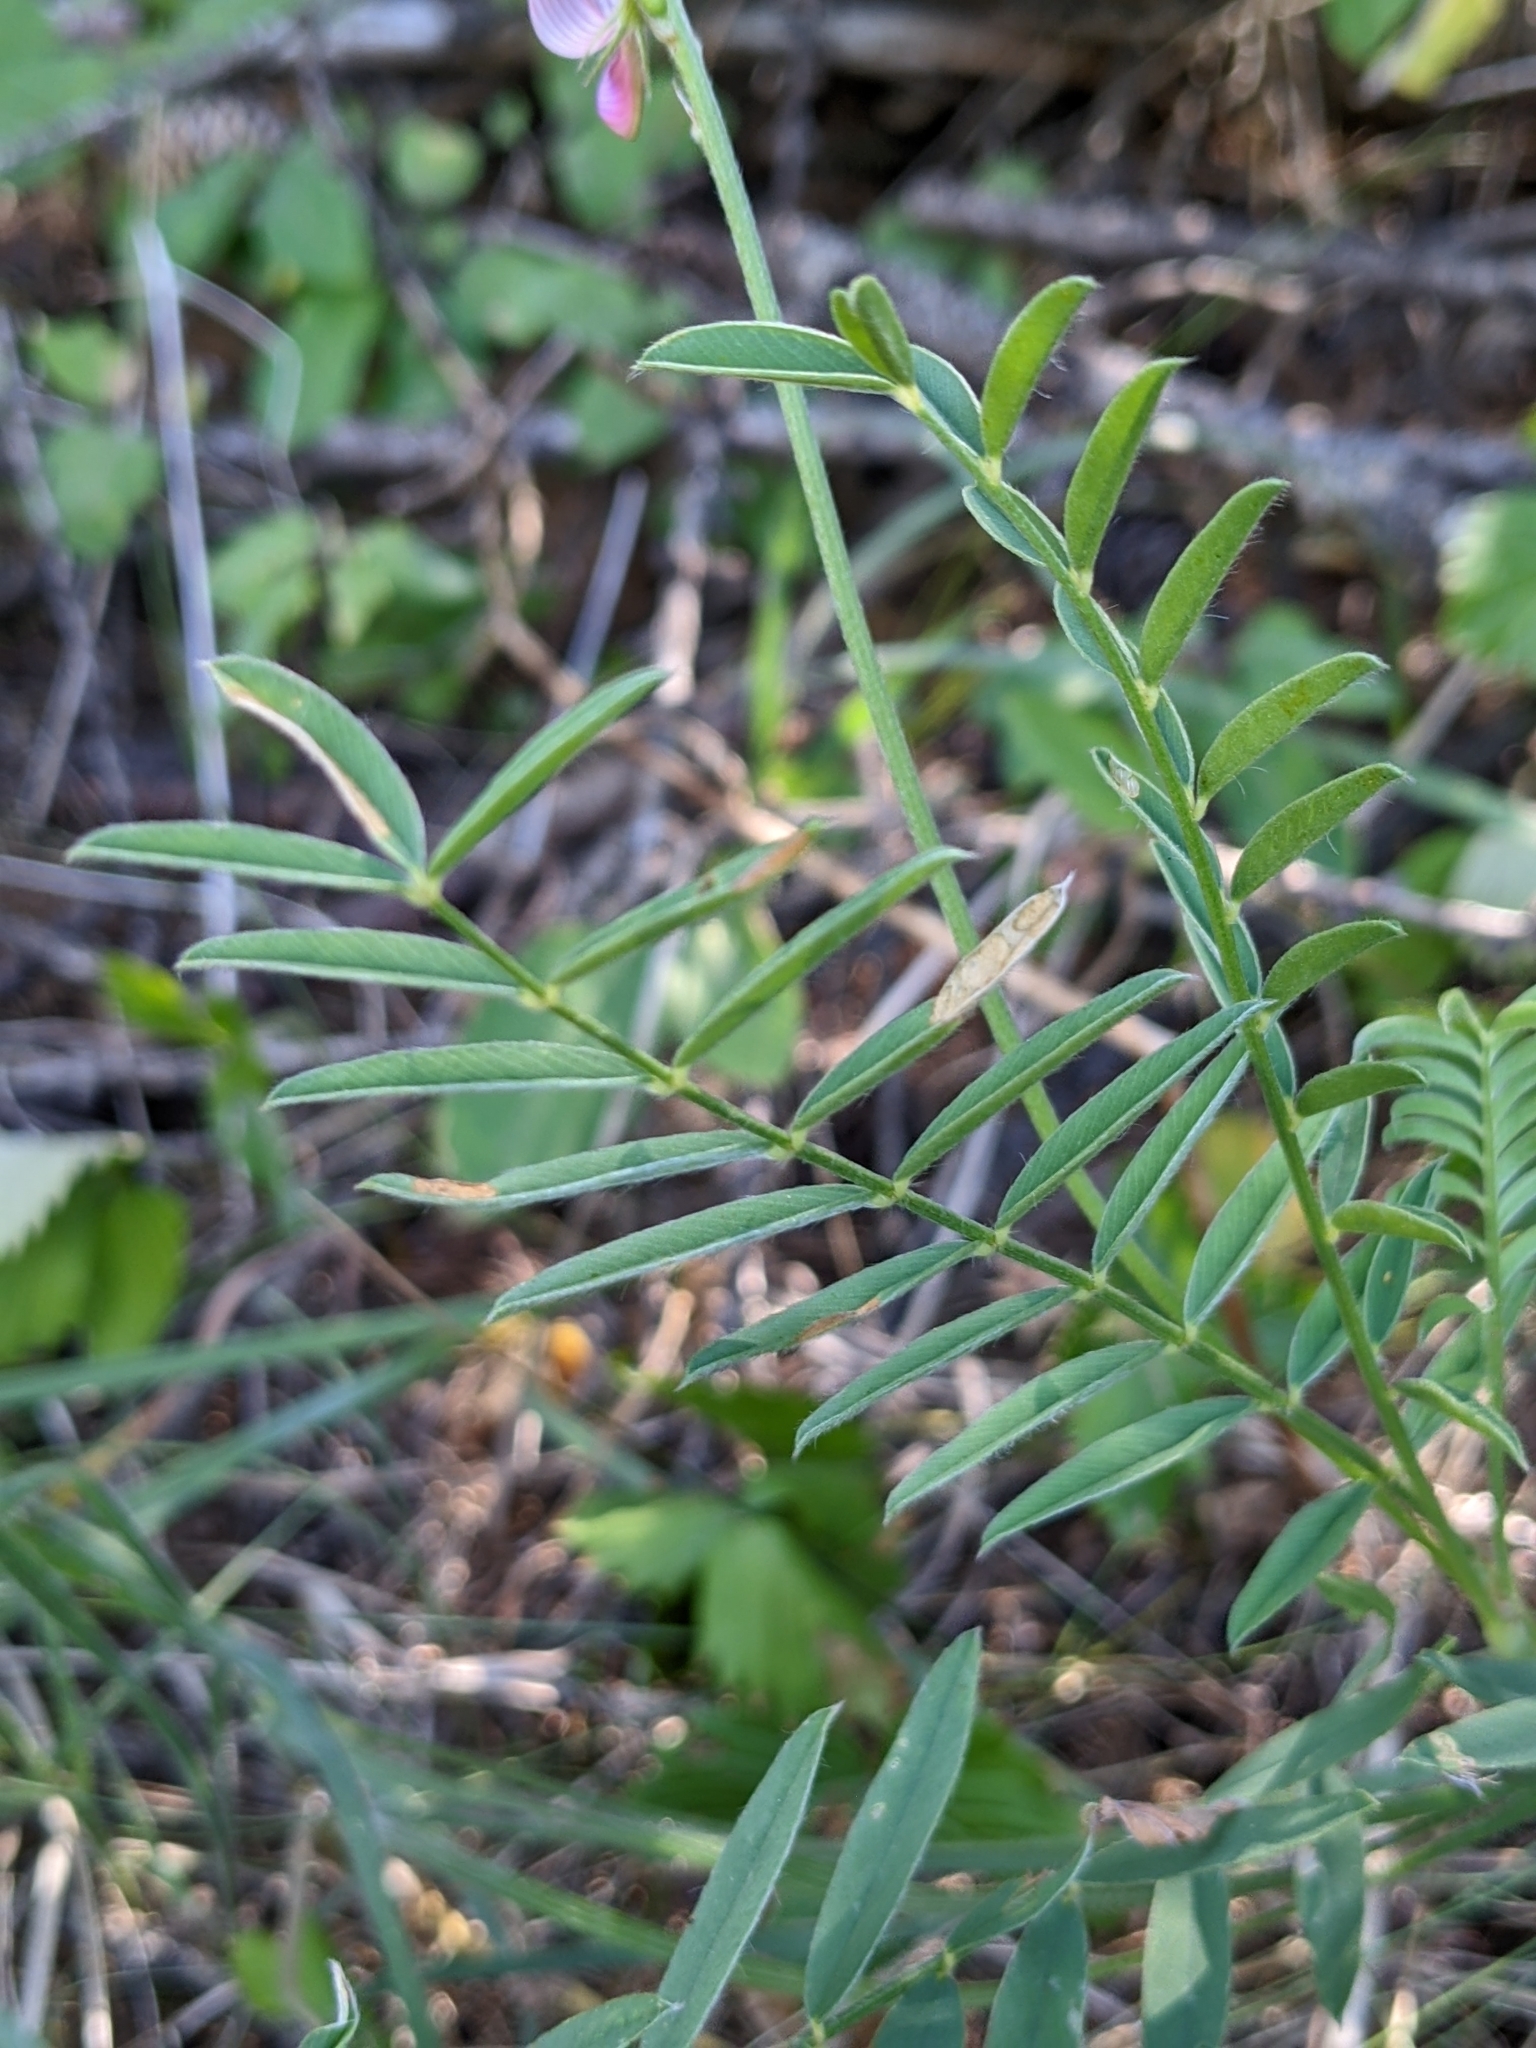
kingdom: Plantae
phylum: Tracheophyta
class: Magnoliopsida
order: Fabales
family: Fabaceae
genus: Onobrychis
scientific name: Onobrychis viciifolia
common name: Sainfoin
